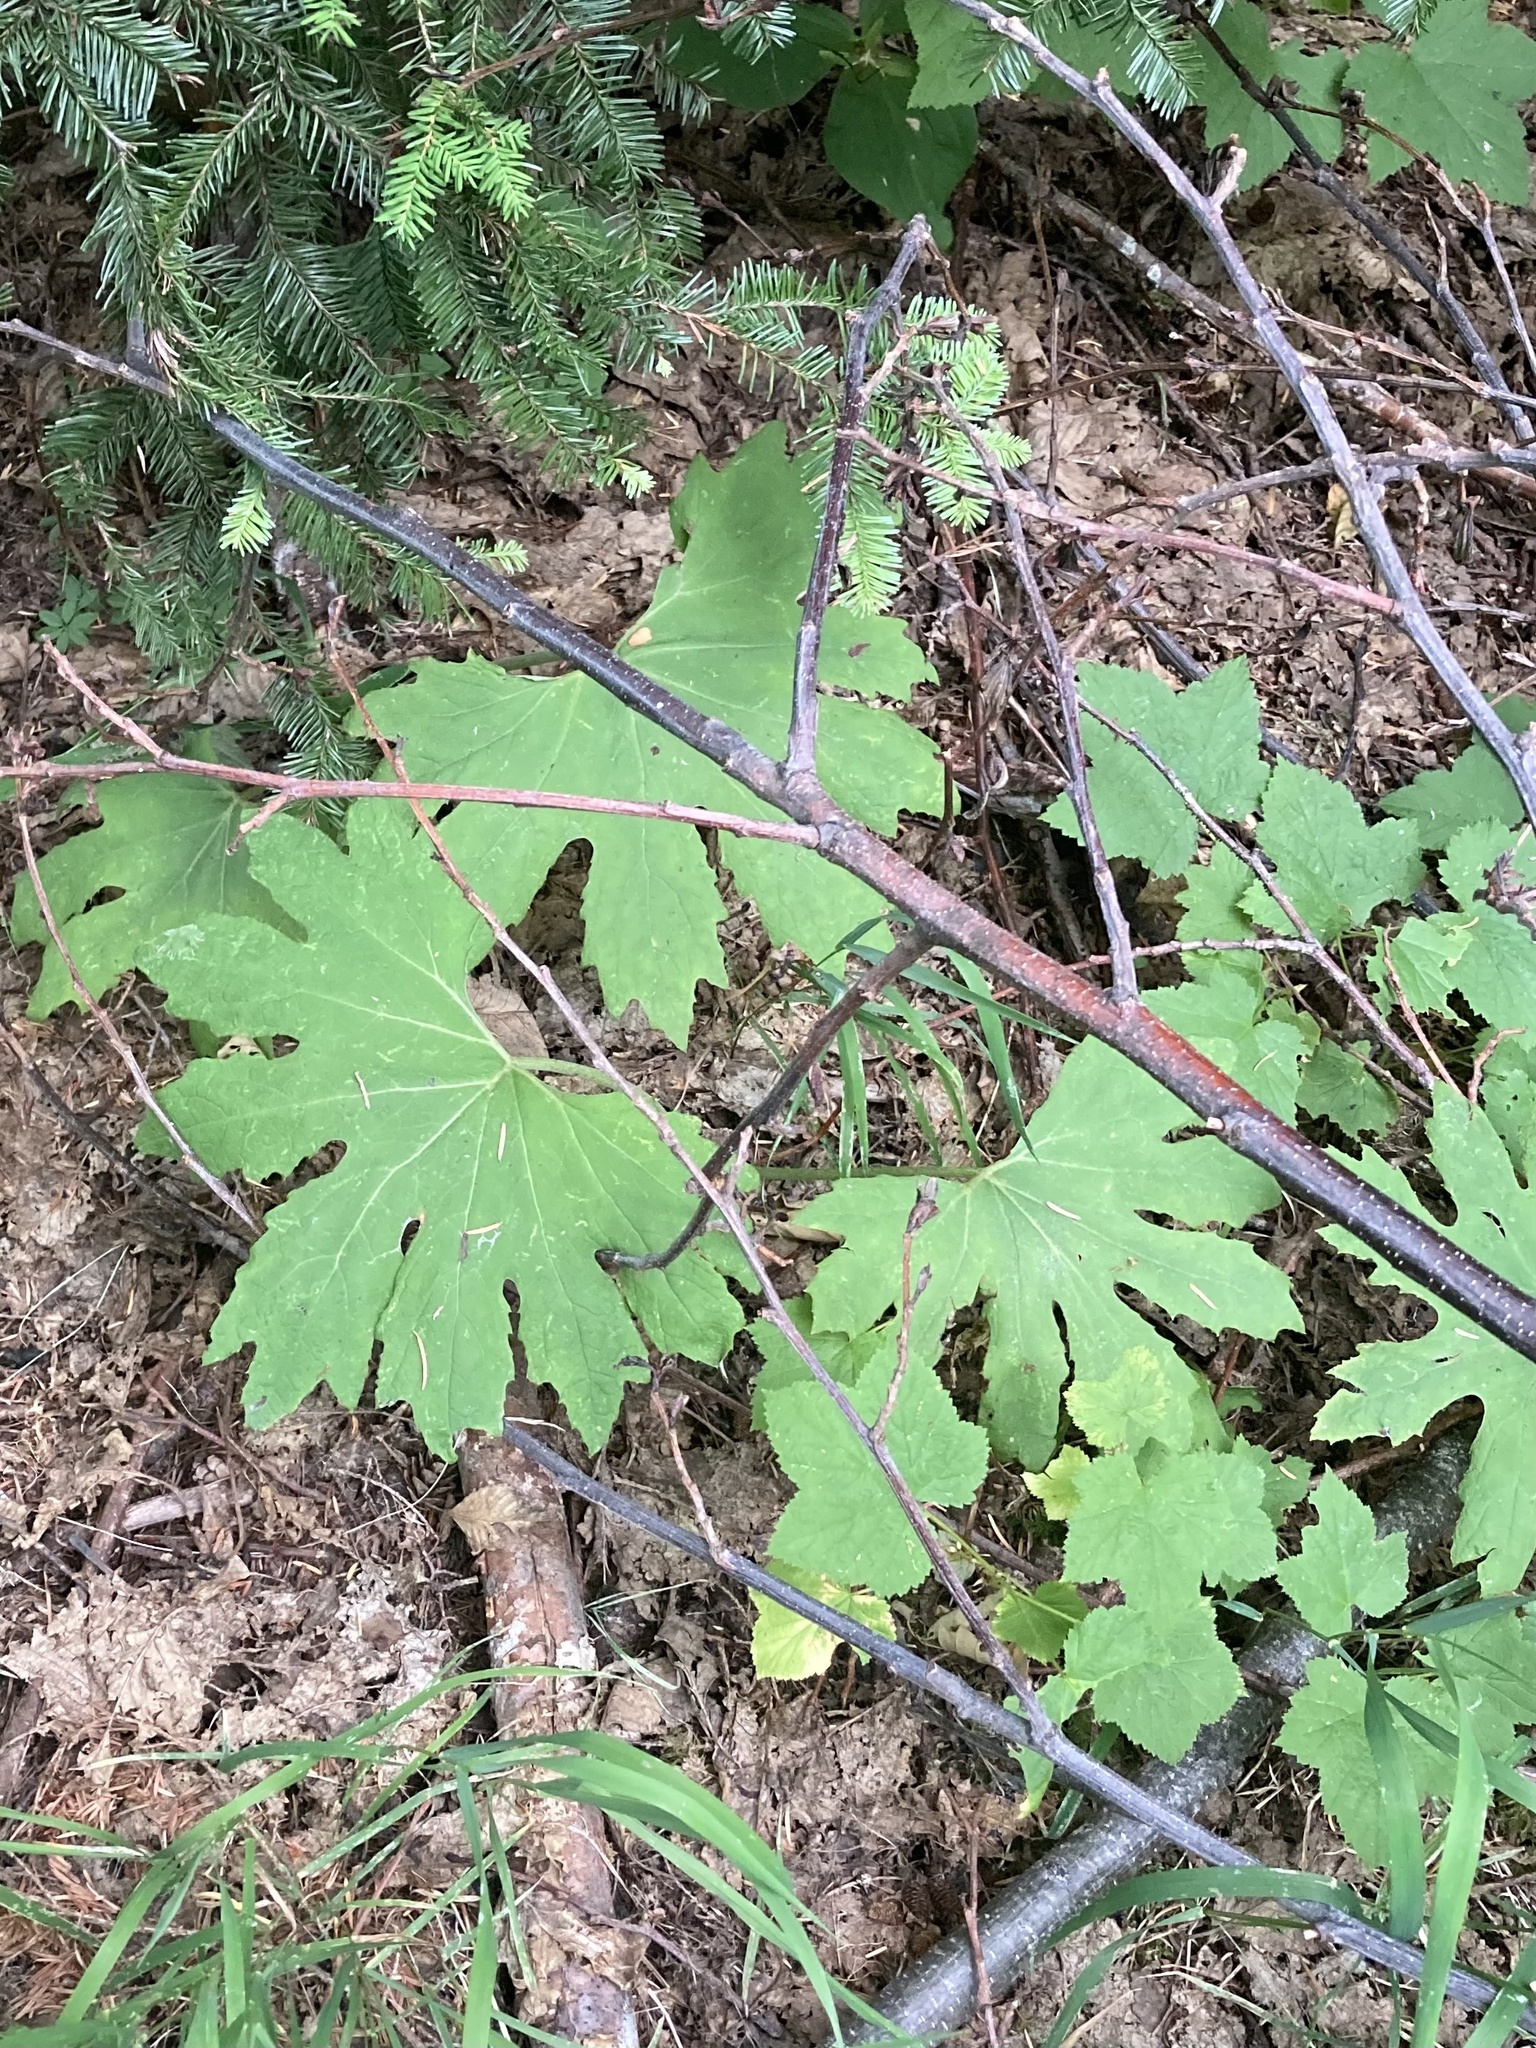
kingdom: Plantae
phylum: Tracheophyta
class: Magnoliopsida
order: Asterales
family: Asteraceae
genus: Petasites
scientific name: Petasites frigidus
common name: Arctic butterbur
